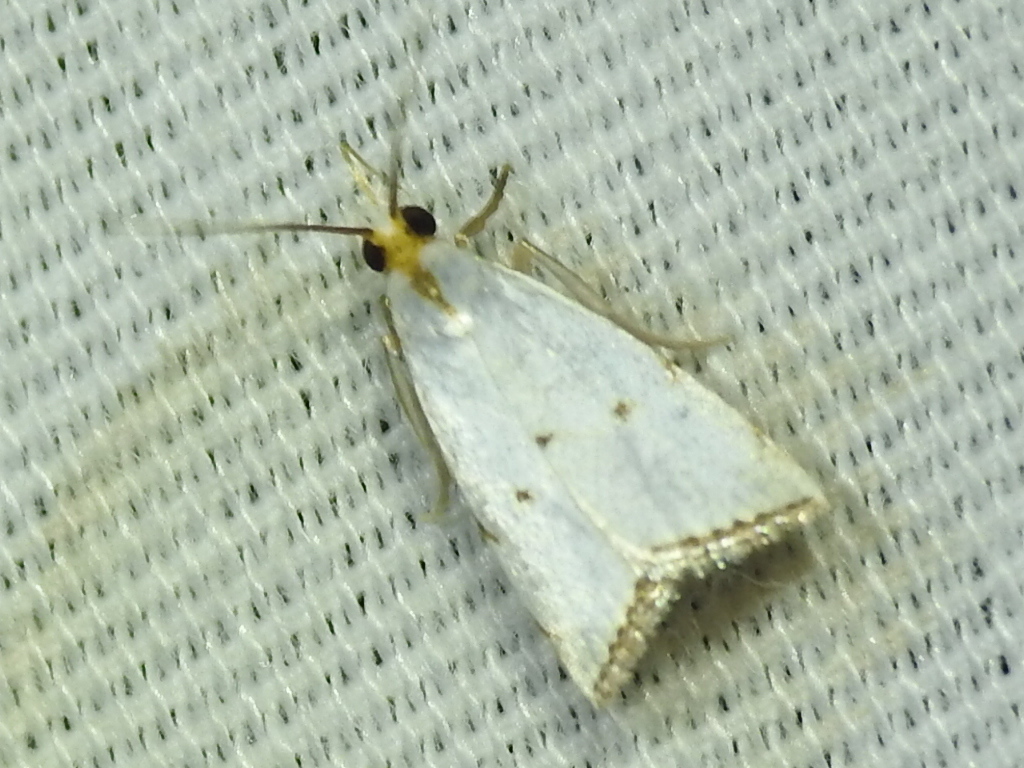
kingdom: Animalia
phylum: Arthropoda
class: Insecta
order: Lepidoptera
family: Crambidae
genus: Argyria
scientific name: Argyria pusillalis
